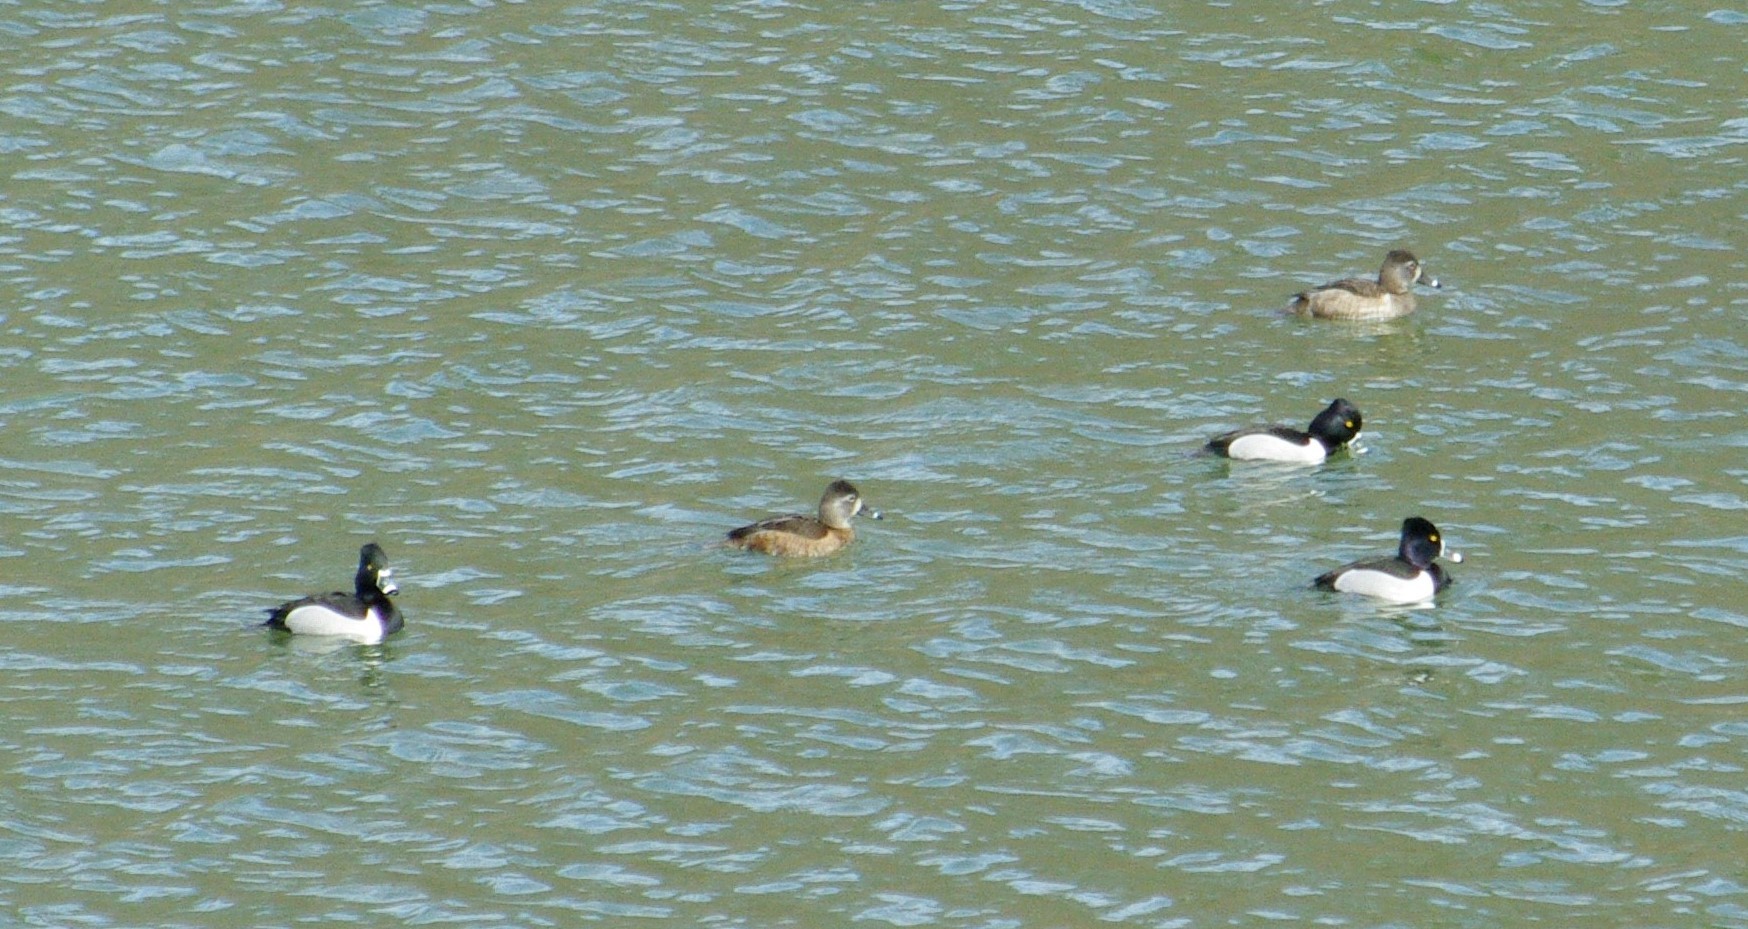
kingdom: Animalia
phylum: Chordata
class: Aves
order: Anseriformes
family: Anatidae
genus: Aythya
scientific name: Aythya collaris
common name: Ring-necked duck
